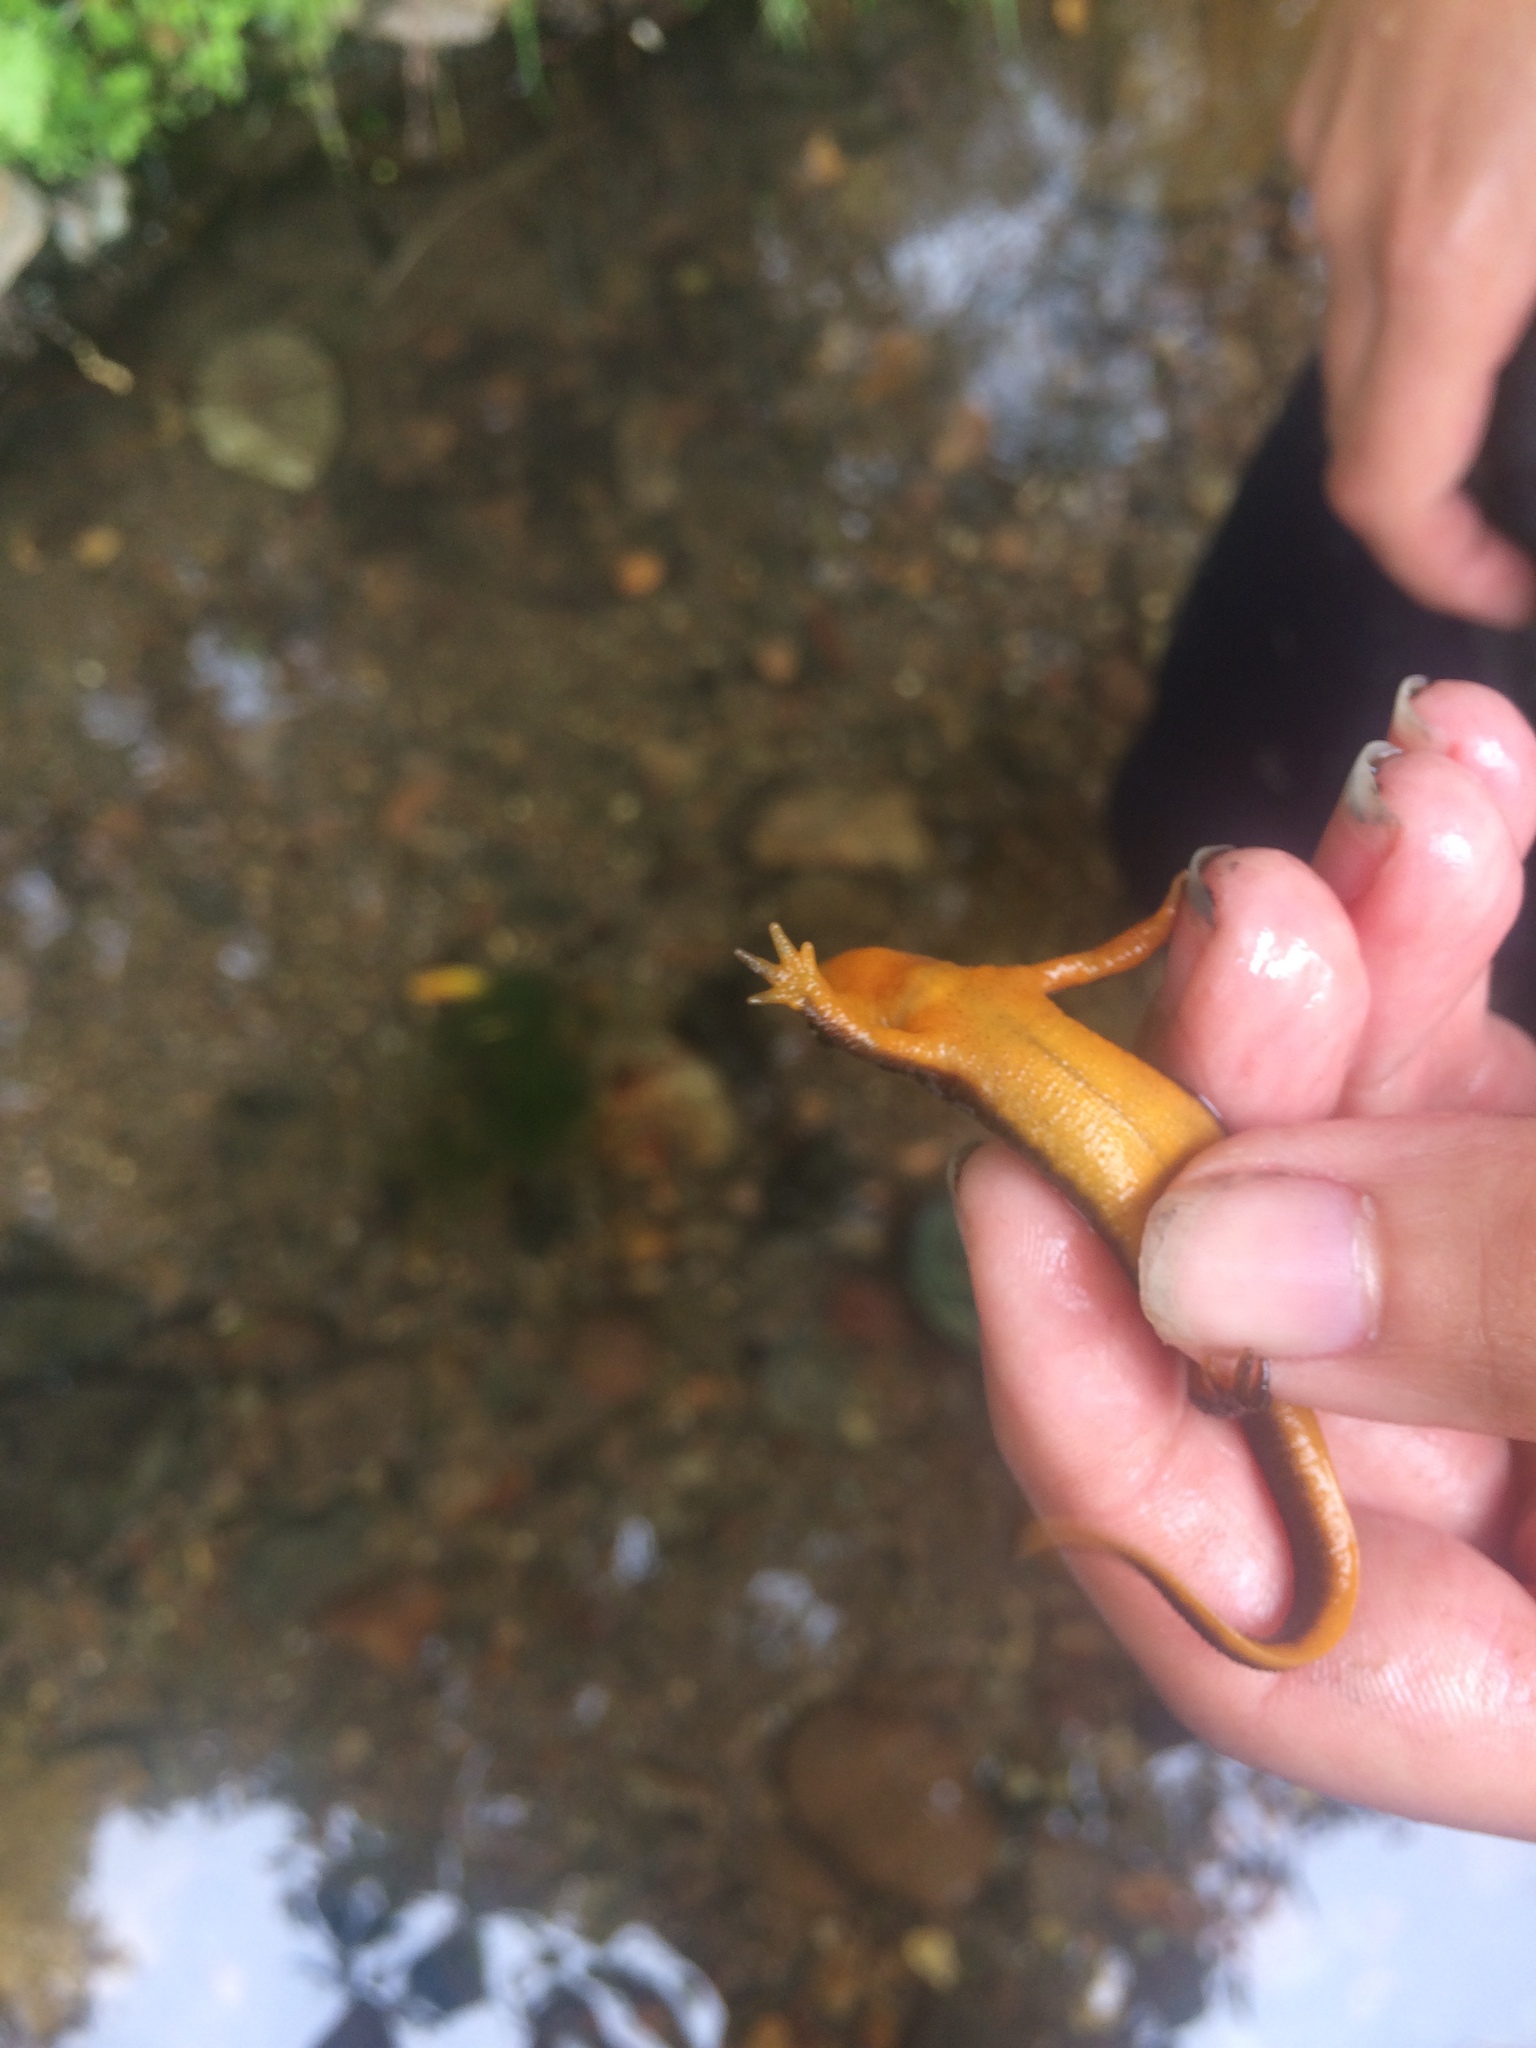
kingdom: Animalia
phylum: Chordata
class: Amphibia
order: Caudata
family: Salamandridae
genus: Taricha
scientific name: Taricha granulosa
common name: Roughskin newt
